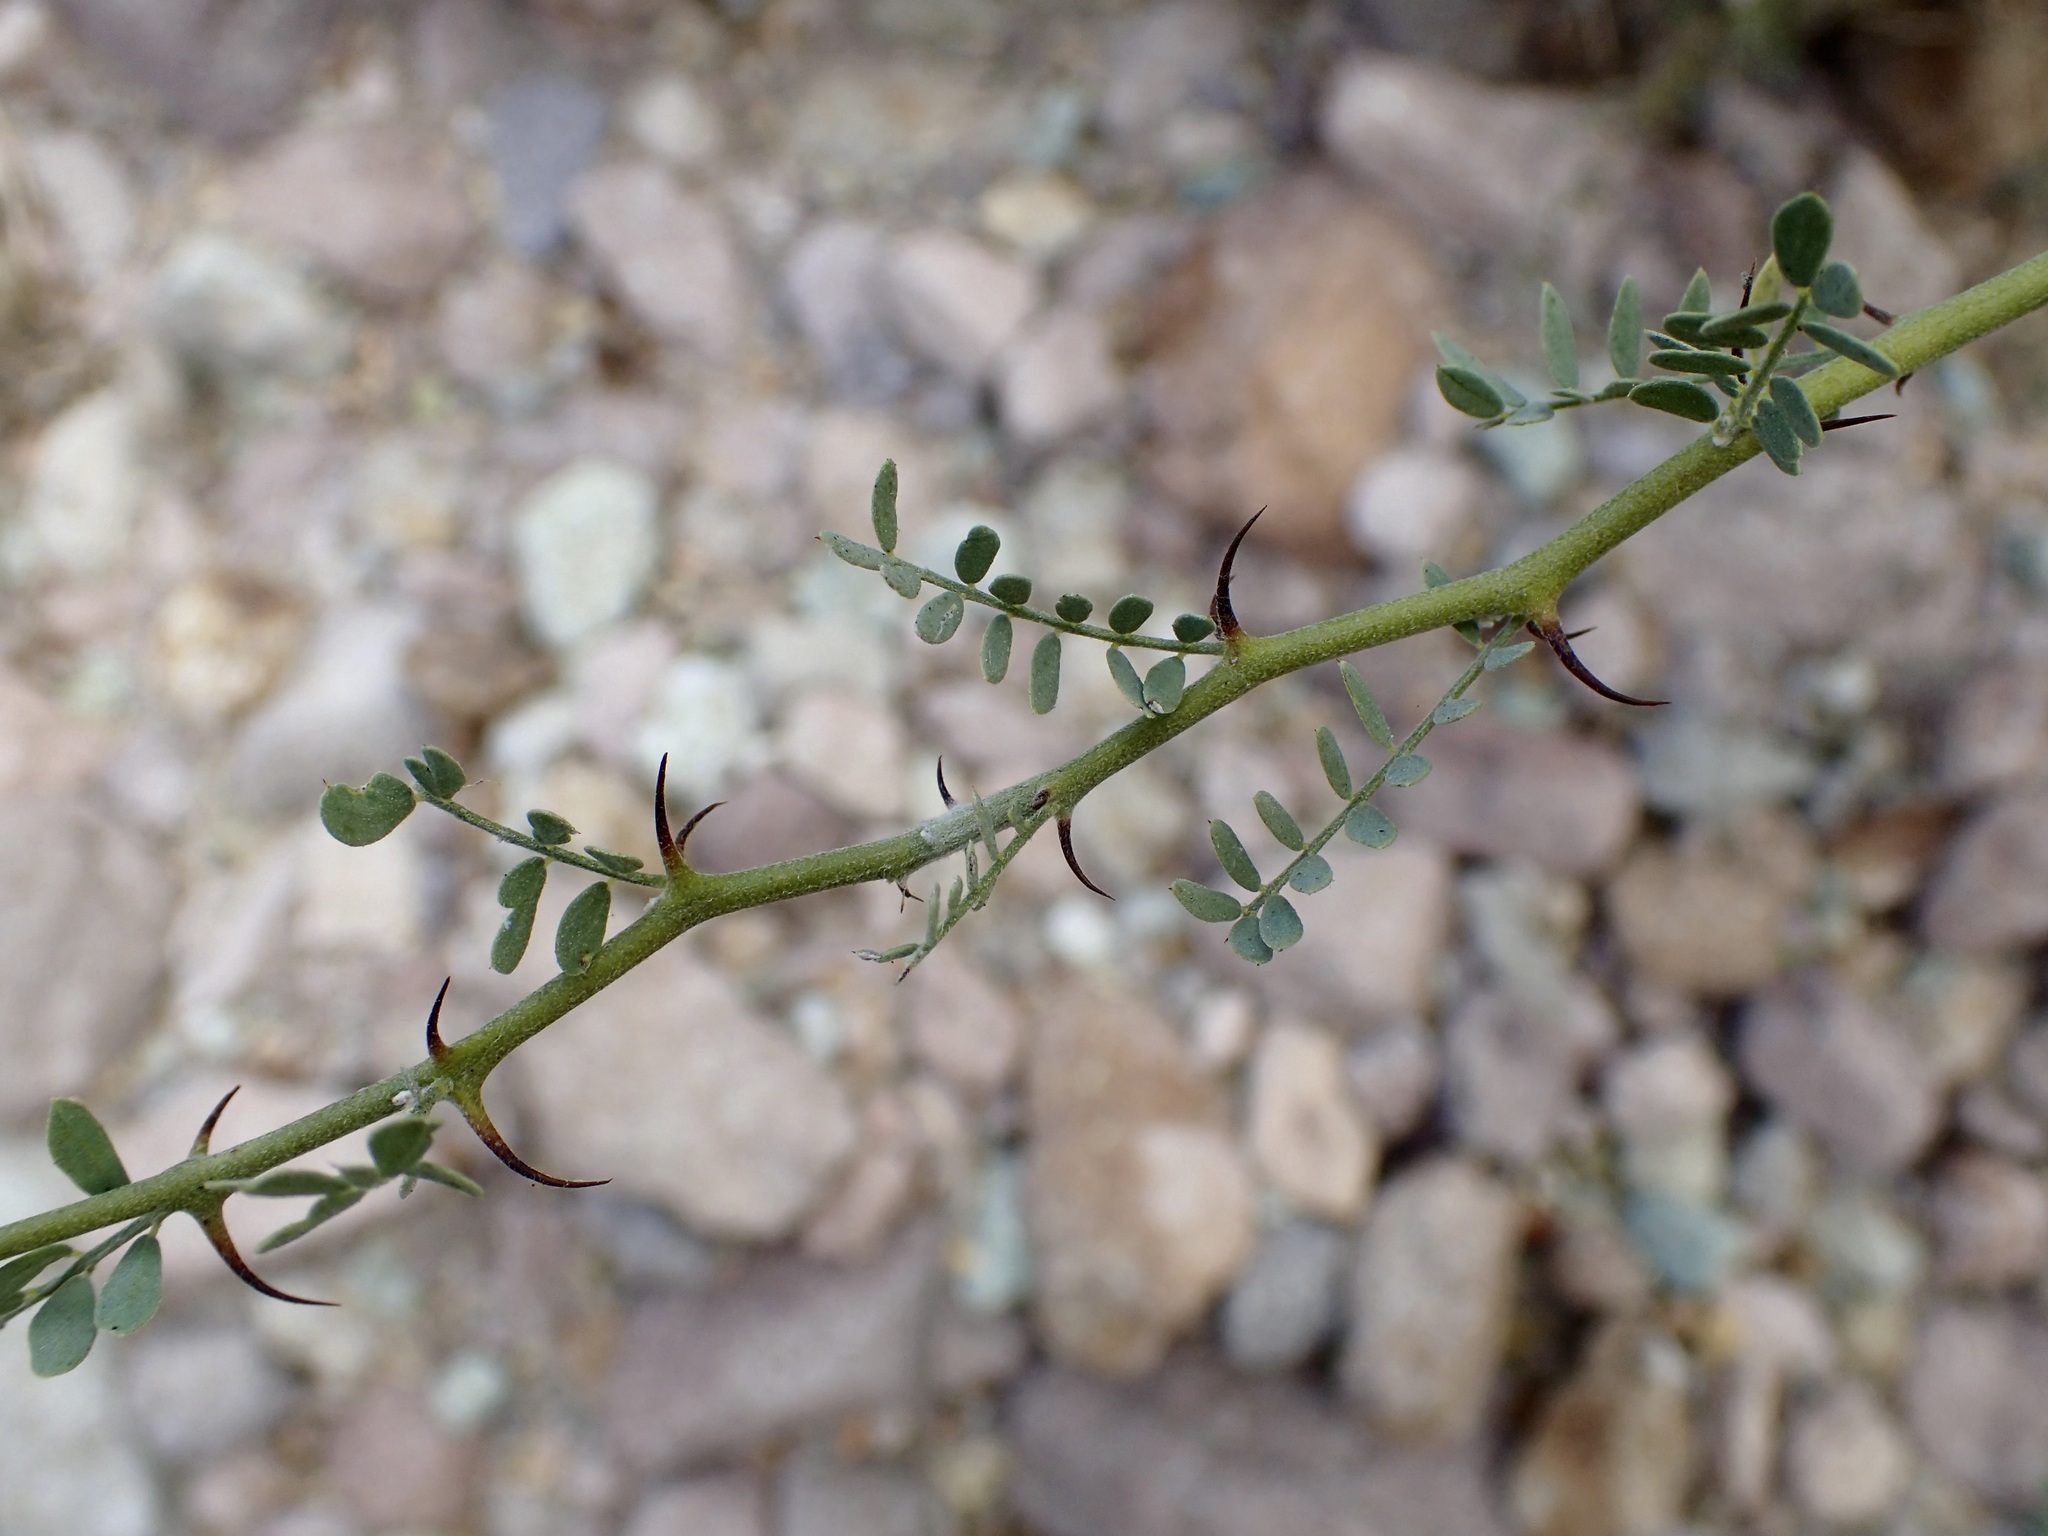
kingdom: Plantae
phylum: Tracheophyta
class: Magnoliopsida
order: Fabales
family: Fabaceae
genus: Olneya
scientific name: Olneya tesota
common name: Desert ironwood
